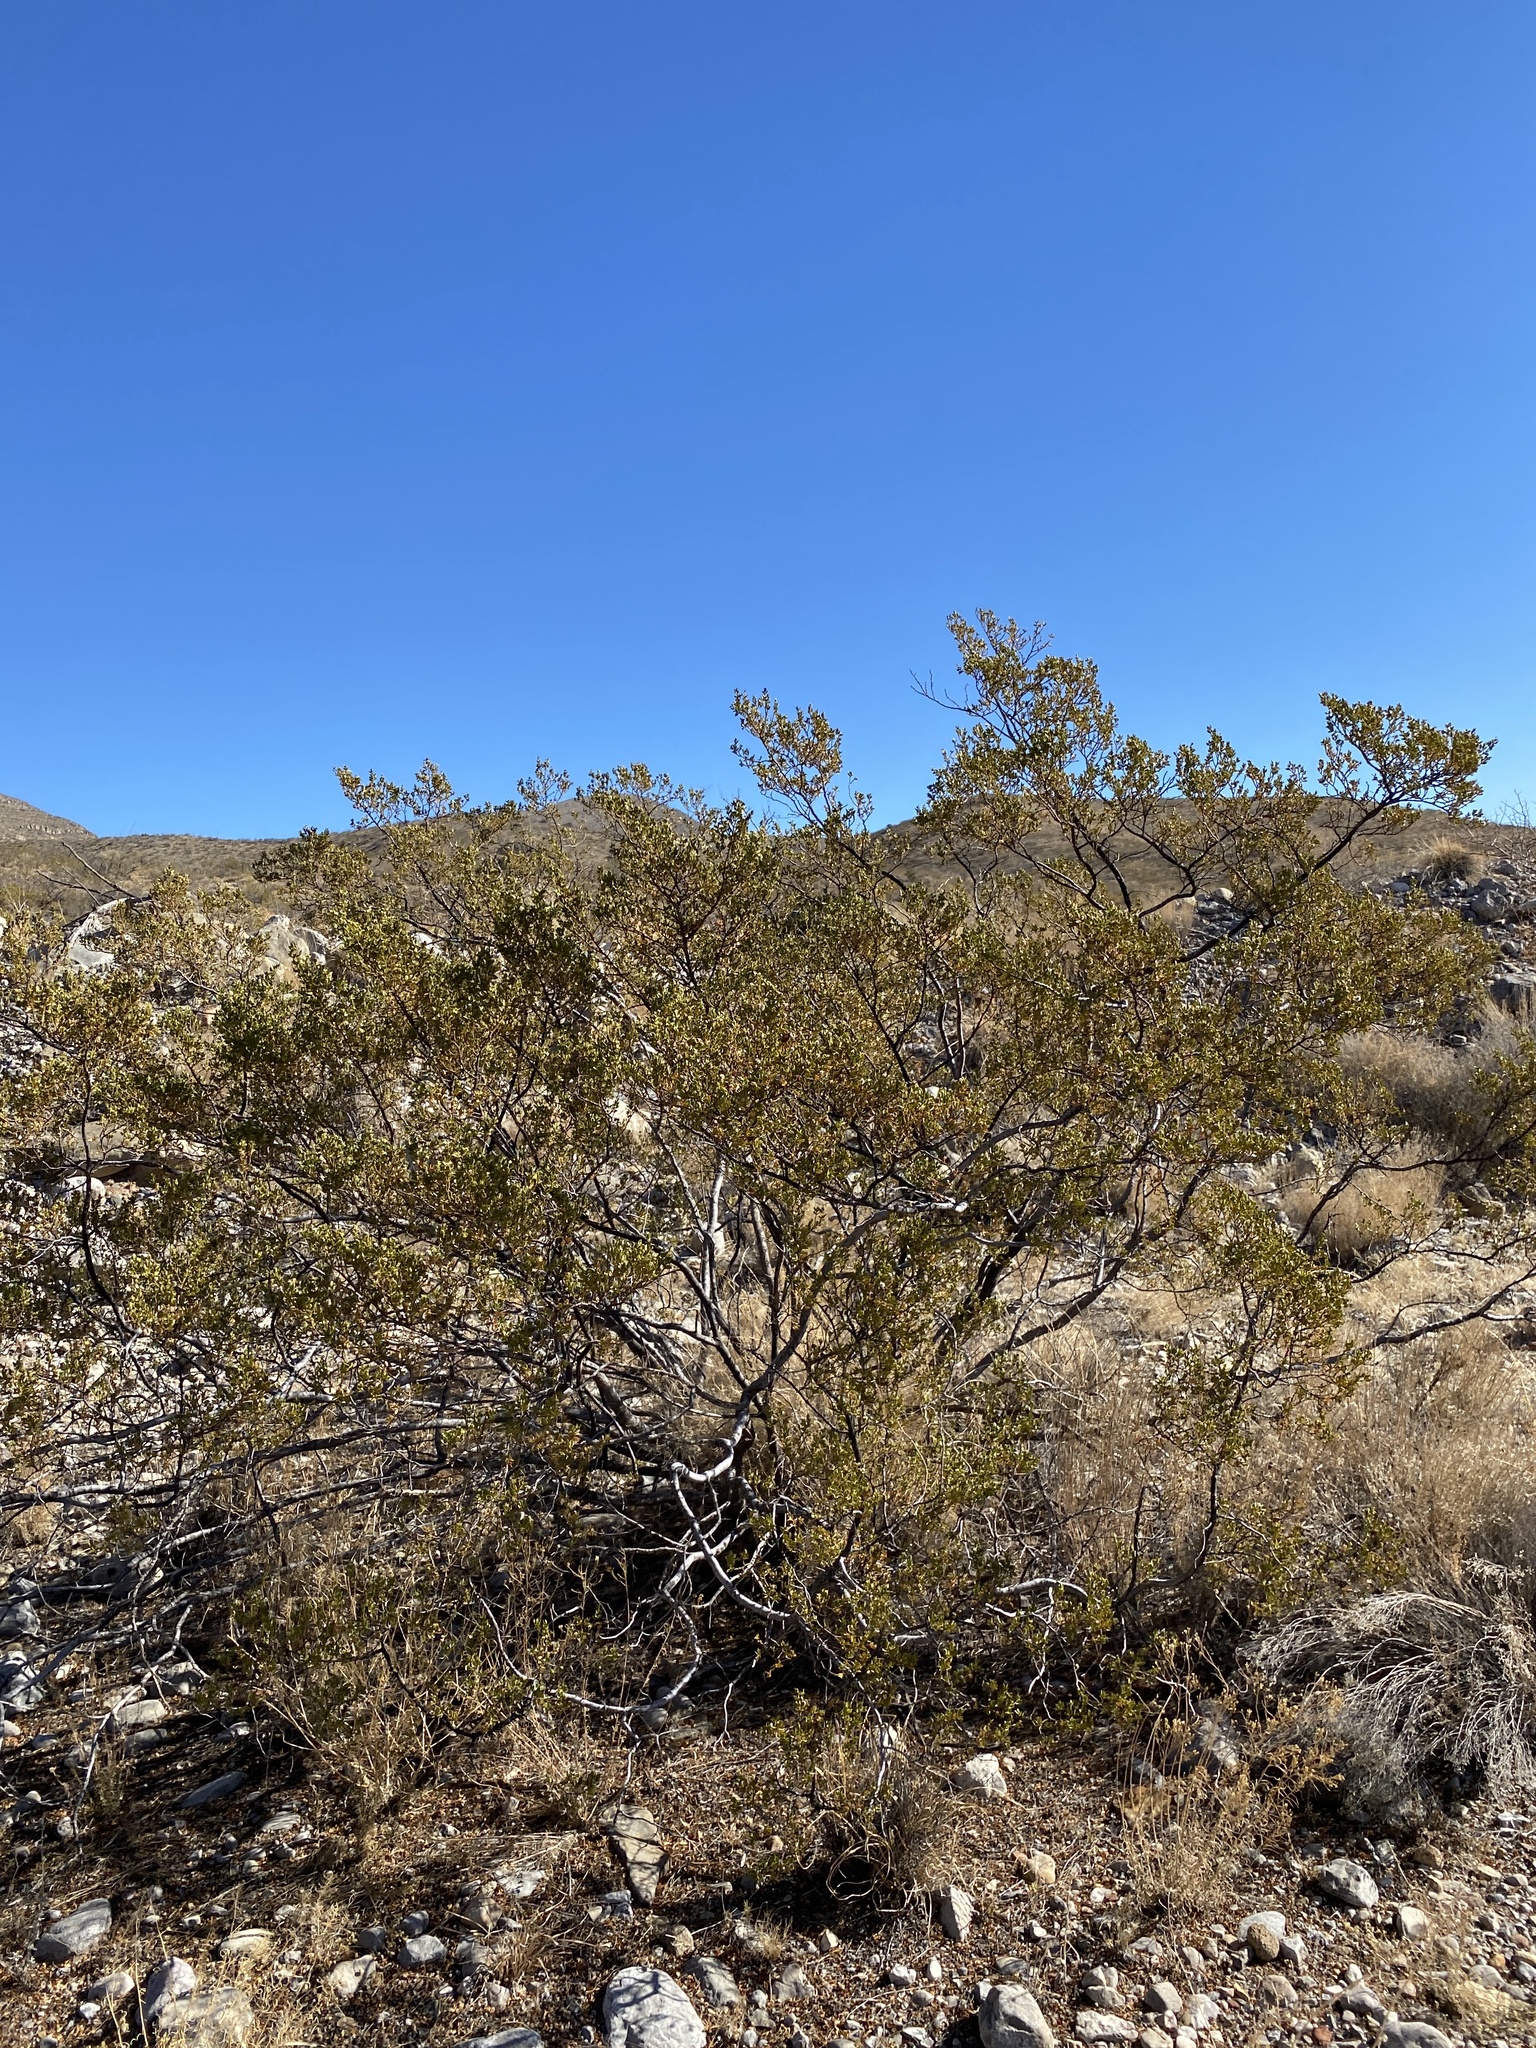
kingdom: Plantae
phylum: Tracheophyta
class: Magnoliopsida
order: Zygophyllales
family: Zygophyllaceae
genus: Larrea
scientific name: Larrea tridentata
